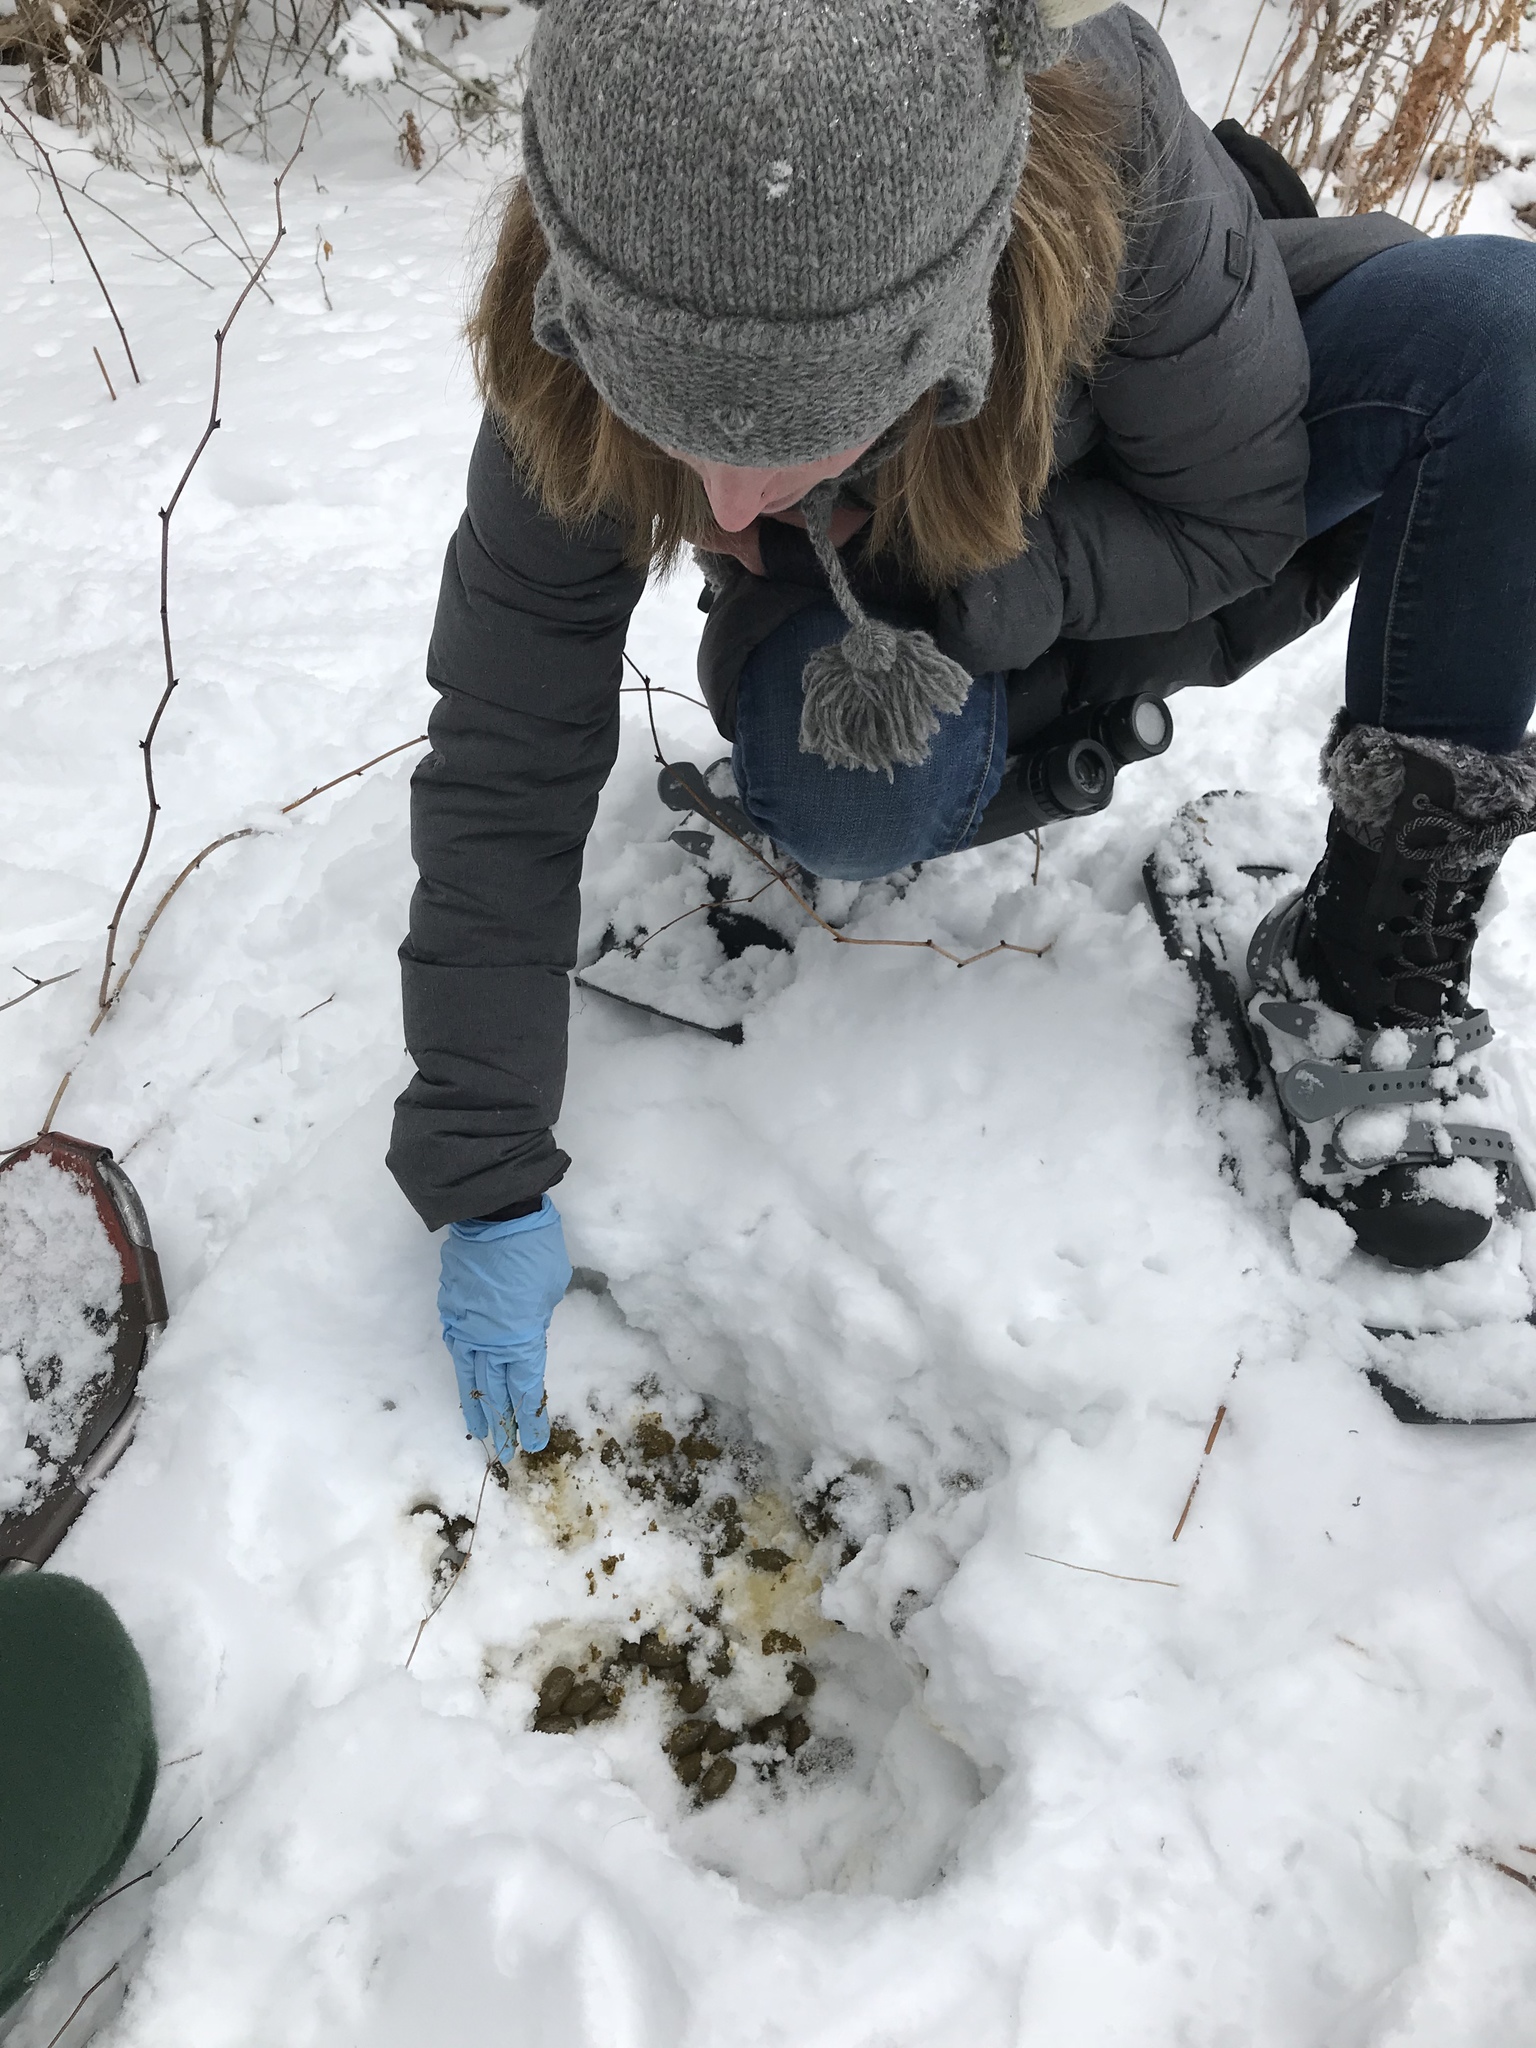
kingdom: Animalia
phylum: Chordata
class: Mammalia
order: Artiodactyla
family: Cervidae
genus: Alces
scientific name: Alces alces
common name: Moose
